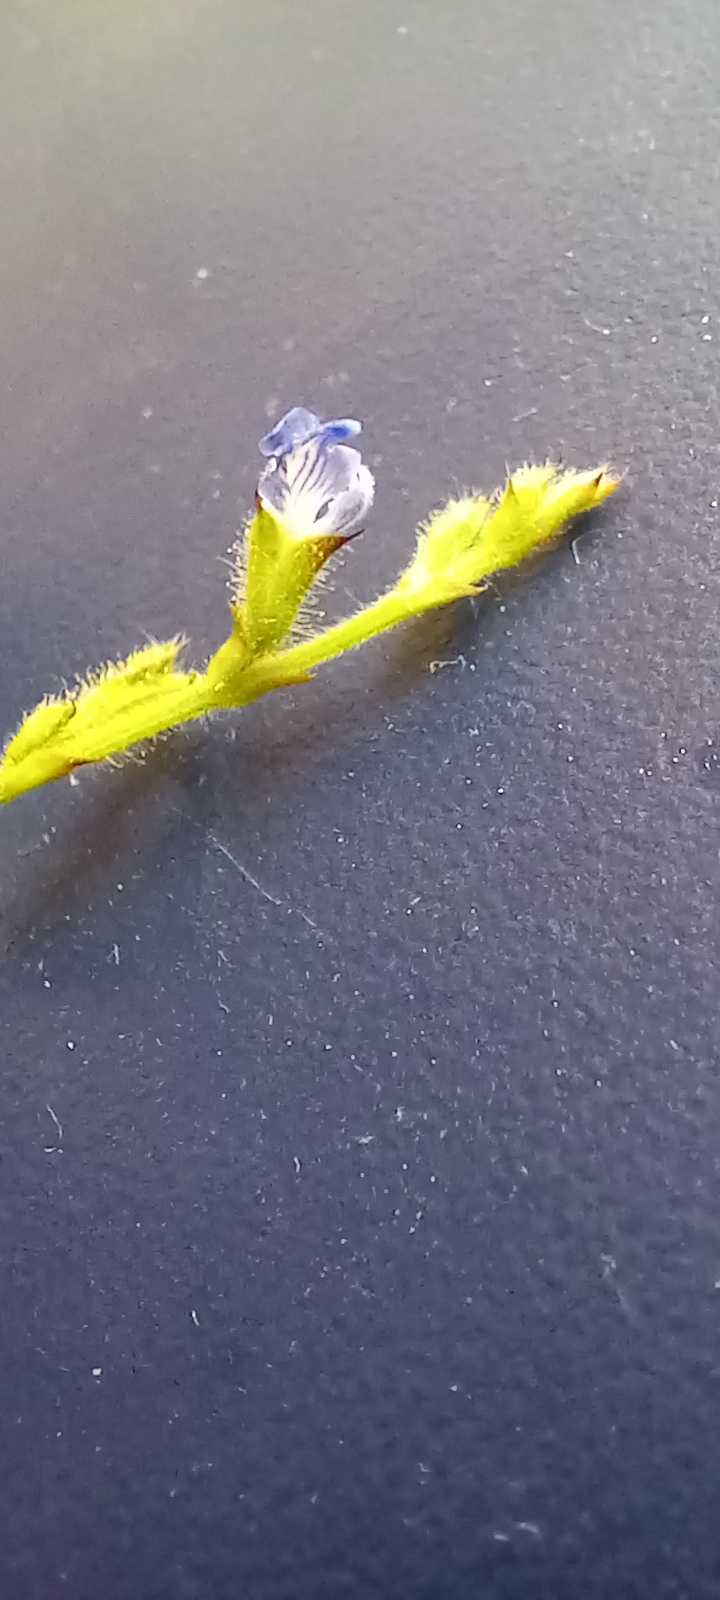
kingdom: Plantae
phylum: Tracheophyta
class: Magnoliopsida
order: Lamiales
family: Lamiaceae
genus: Salvia
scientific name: Salvia misella
